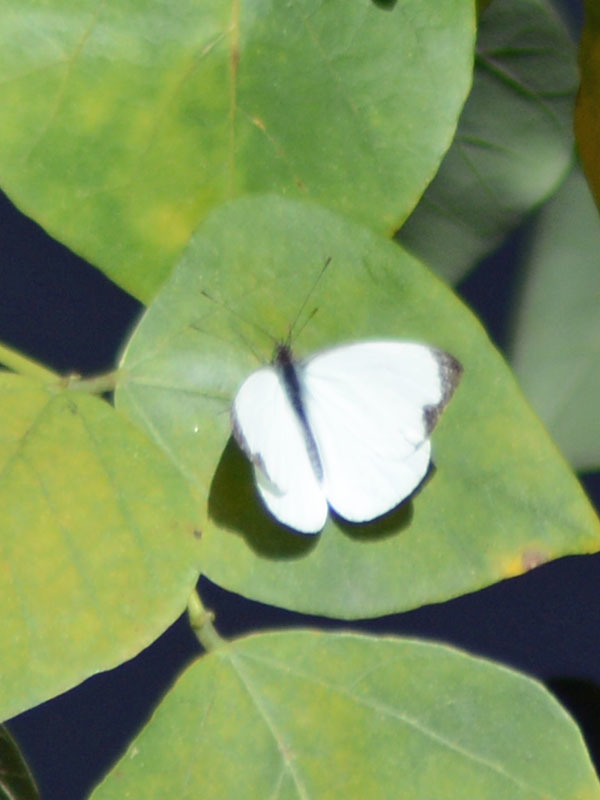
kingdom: Animalia
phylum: Arthropoda
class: Insecta
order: Lepidoptera
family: Pieridae
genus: Leptophobia
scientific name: Leptophobia aripa
